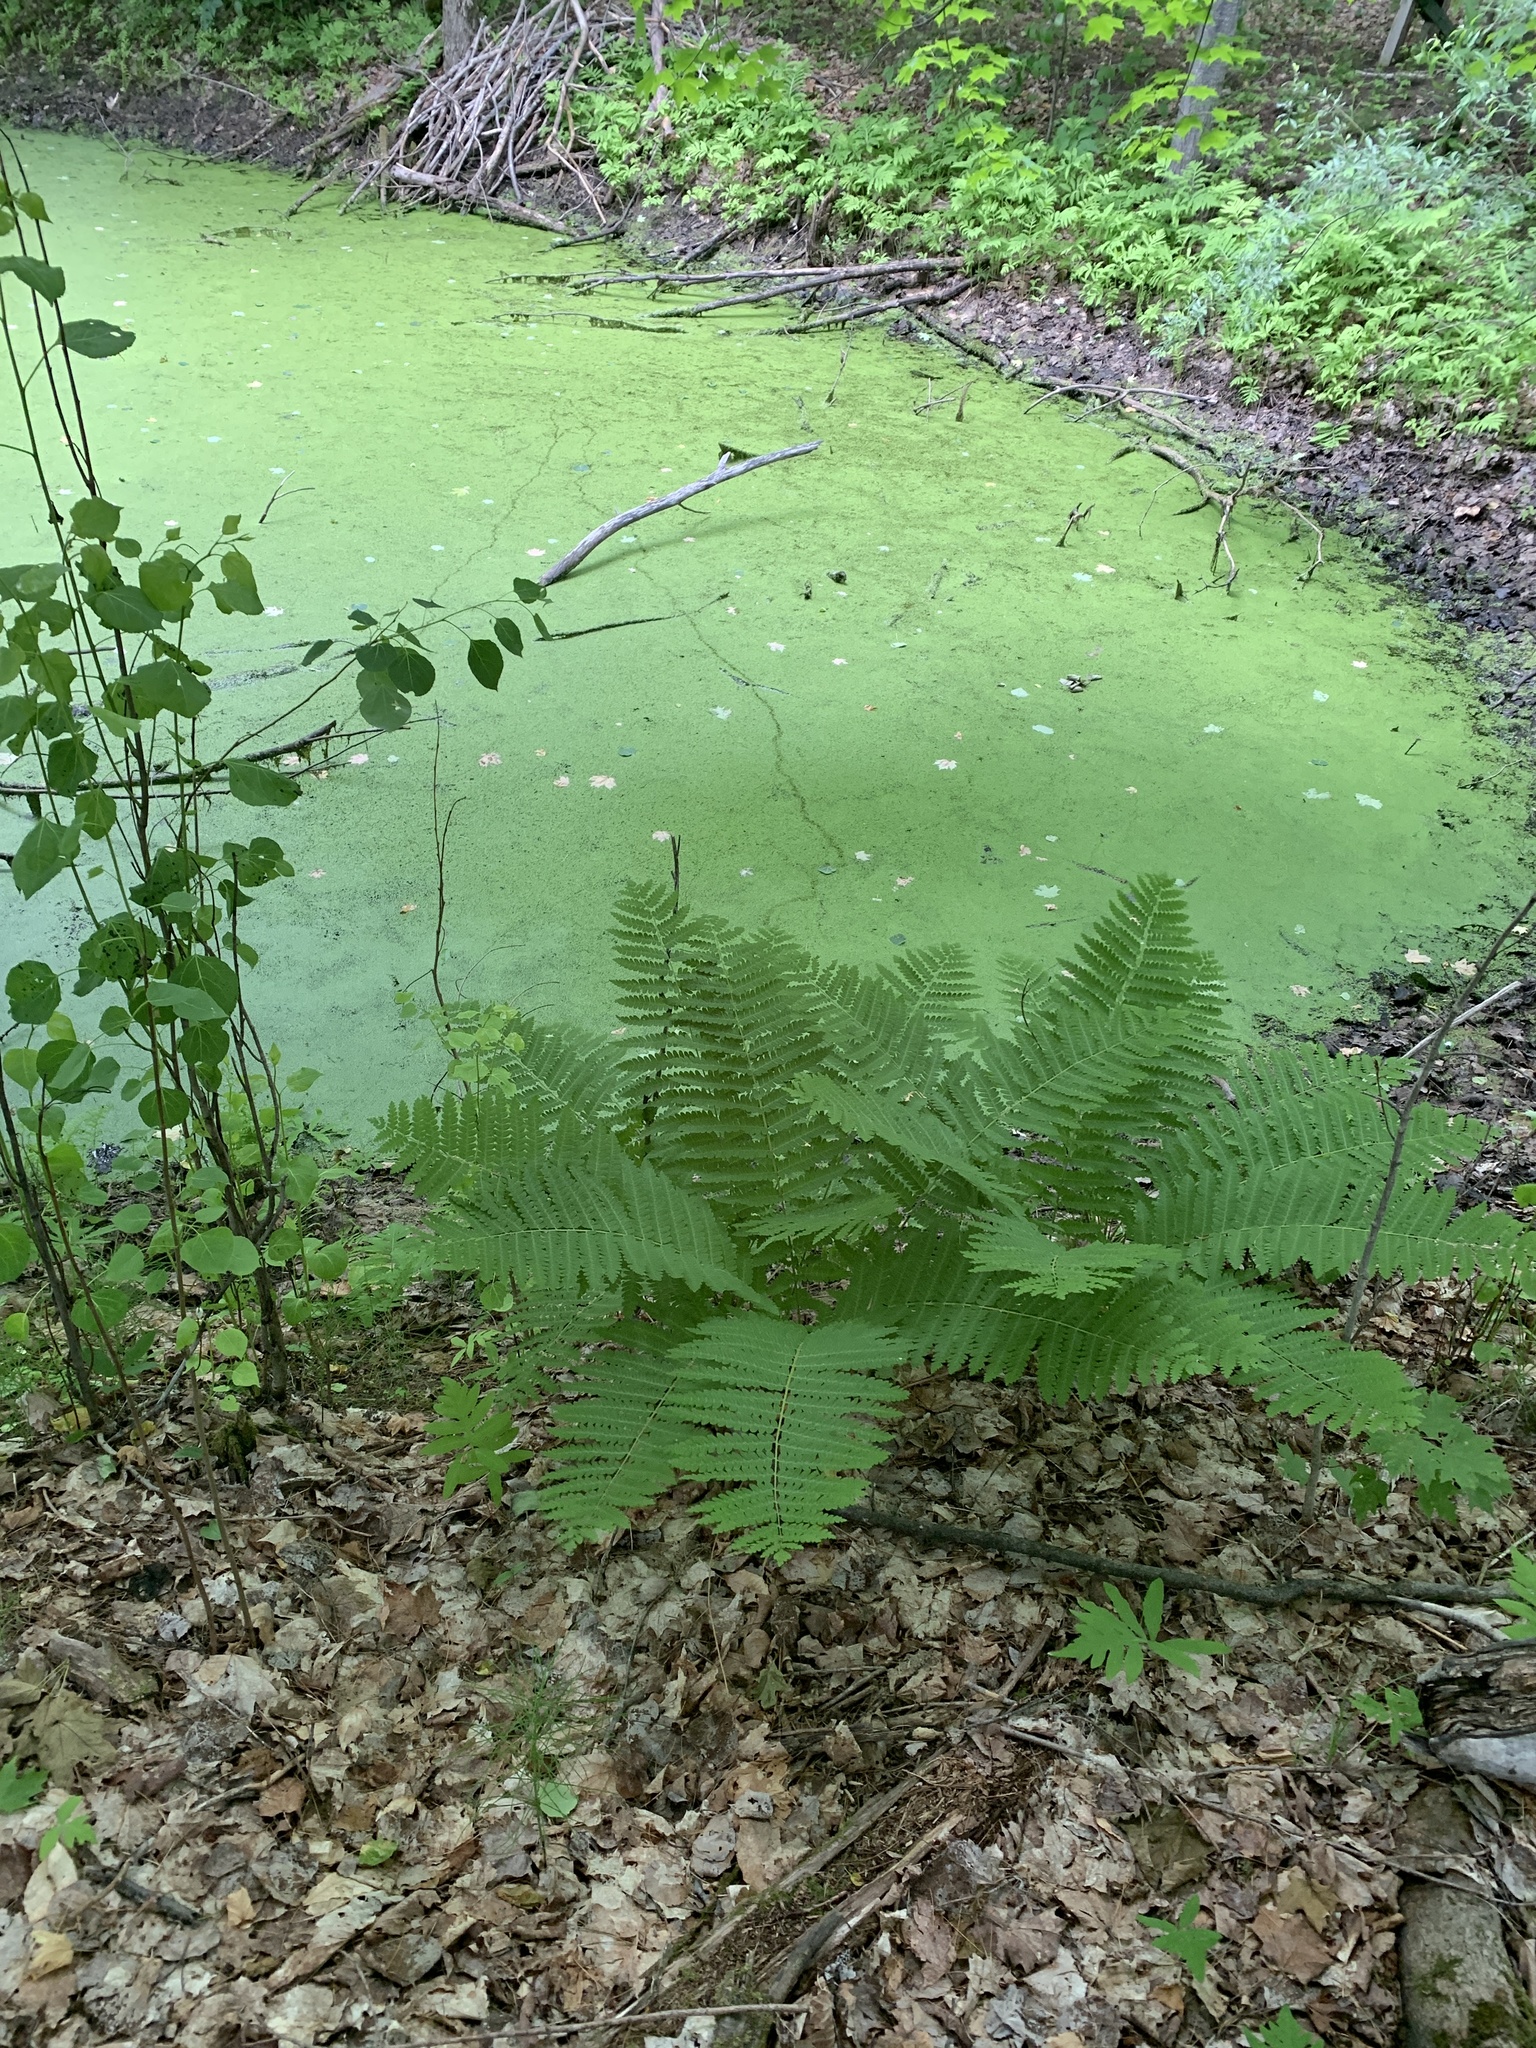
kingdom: Plantae
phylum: Tracheophyta
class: Polypodiopsida
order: Osmundales
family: Osmundaceae
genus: Claytosmunda
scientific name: Claytosmunda claytoniana
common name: Clayton's fern
